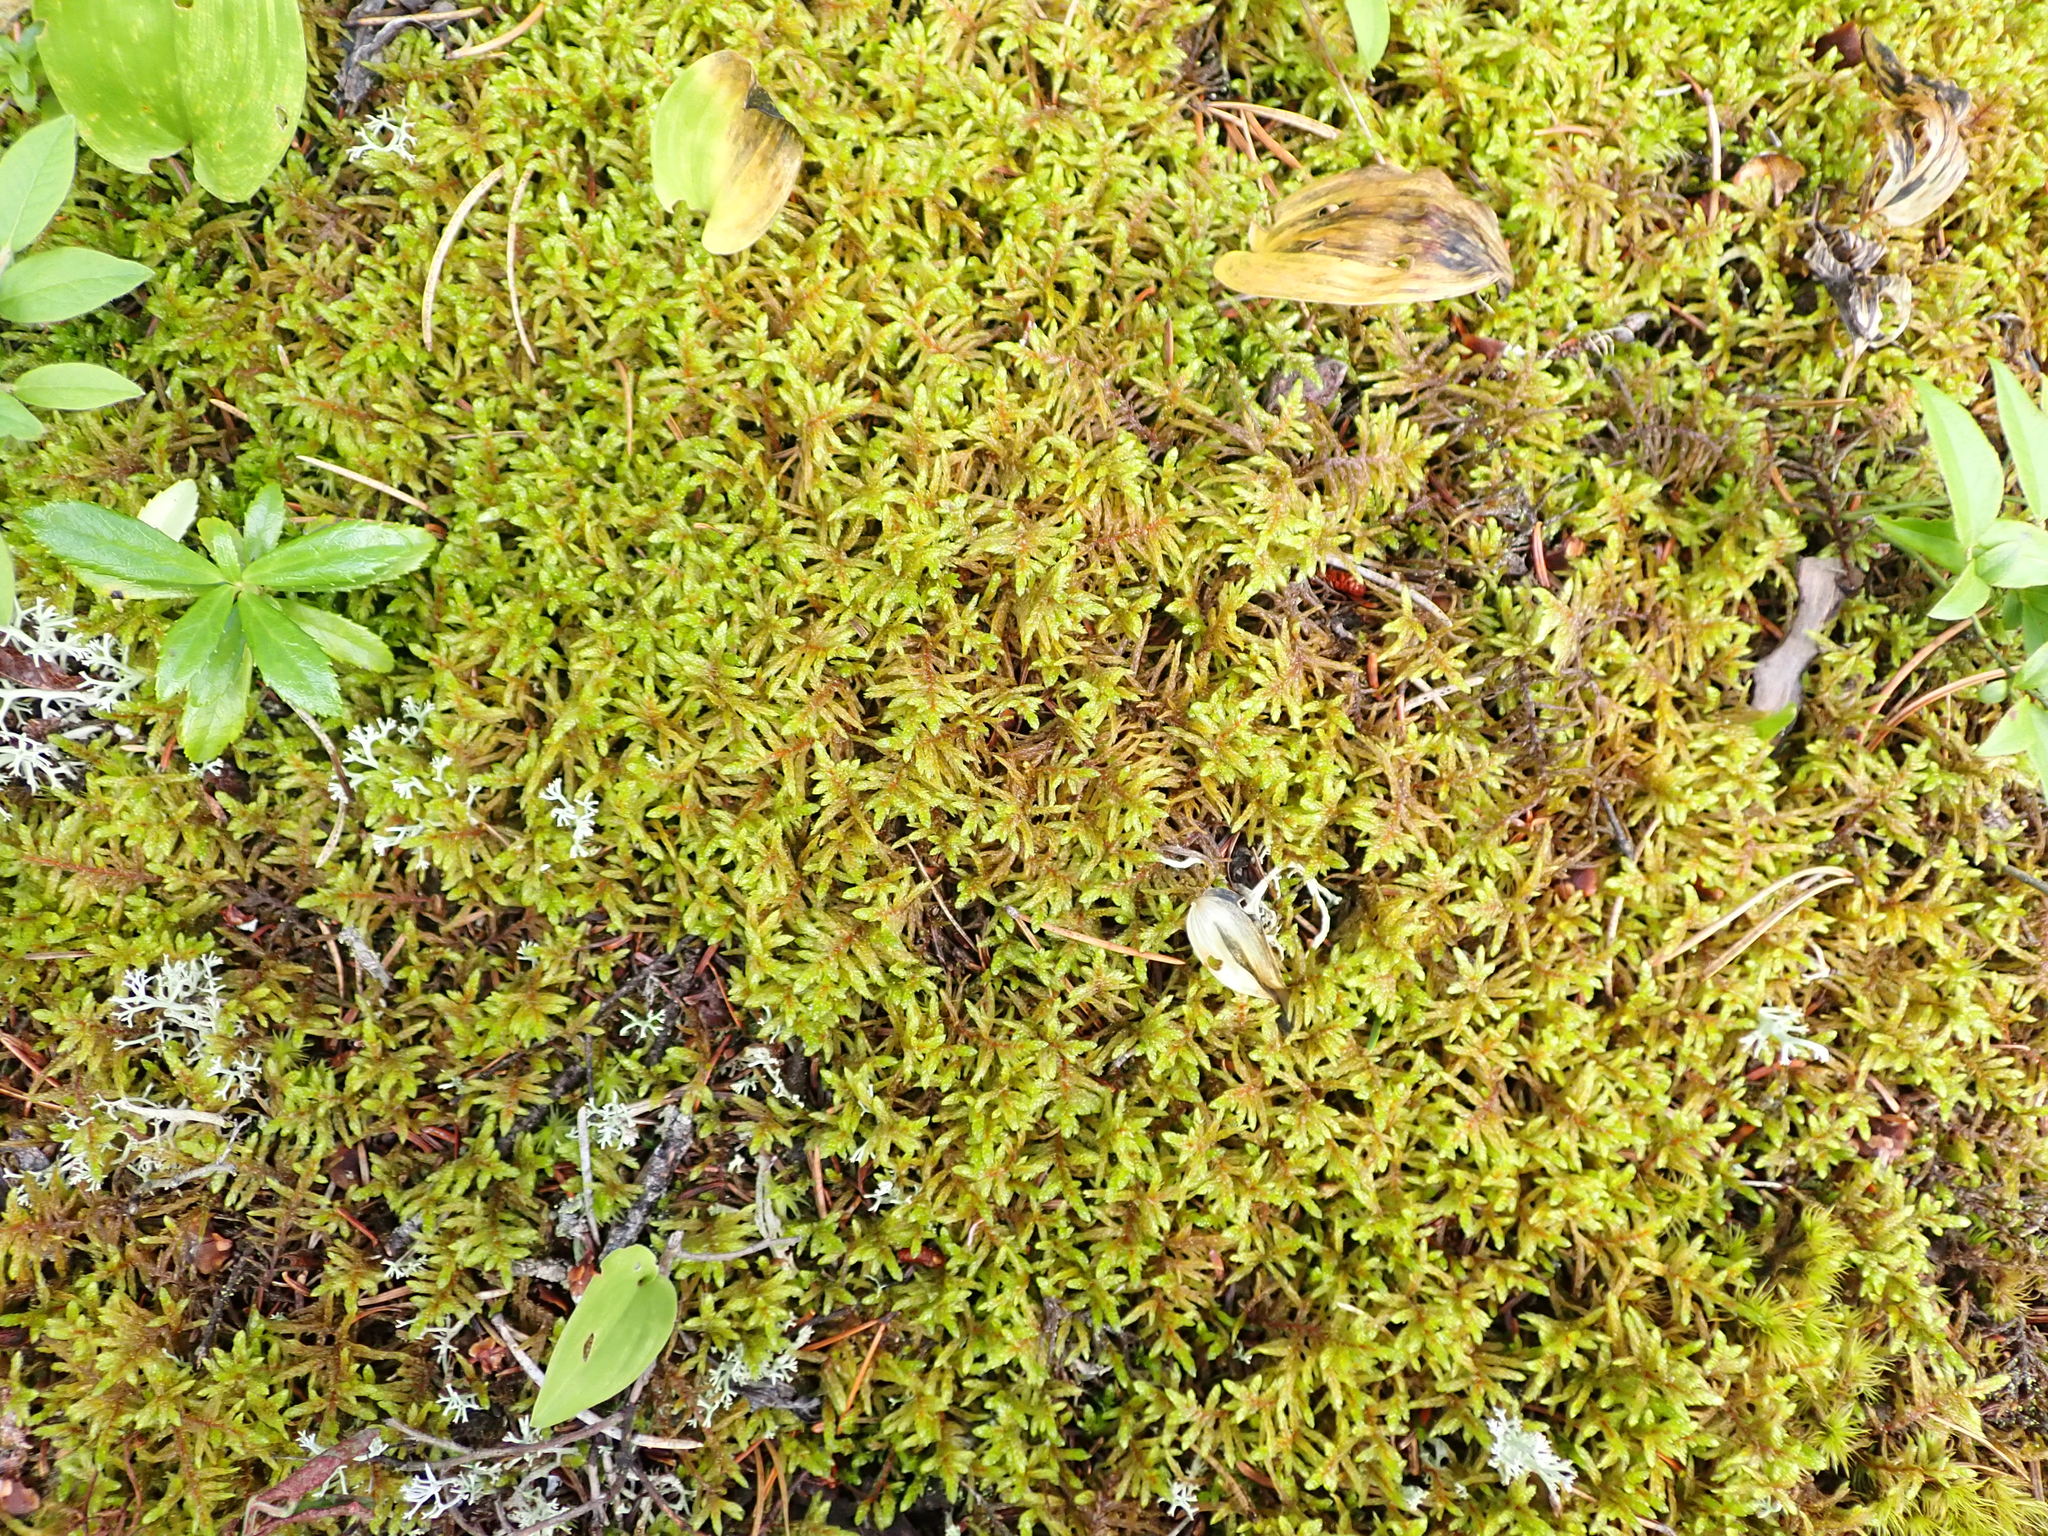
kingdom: Plantae
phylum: Bryophyta
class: Bryopsida
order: Hypnales
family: Hylocomiaceae
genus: Pleurozium
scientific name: Pleurozium schreberi
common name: Red-stemmed feather moss
